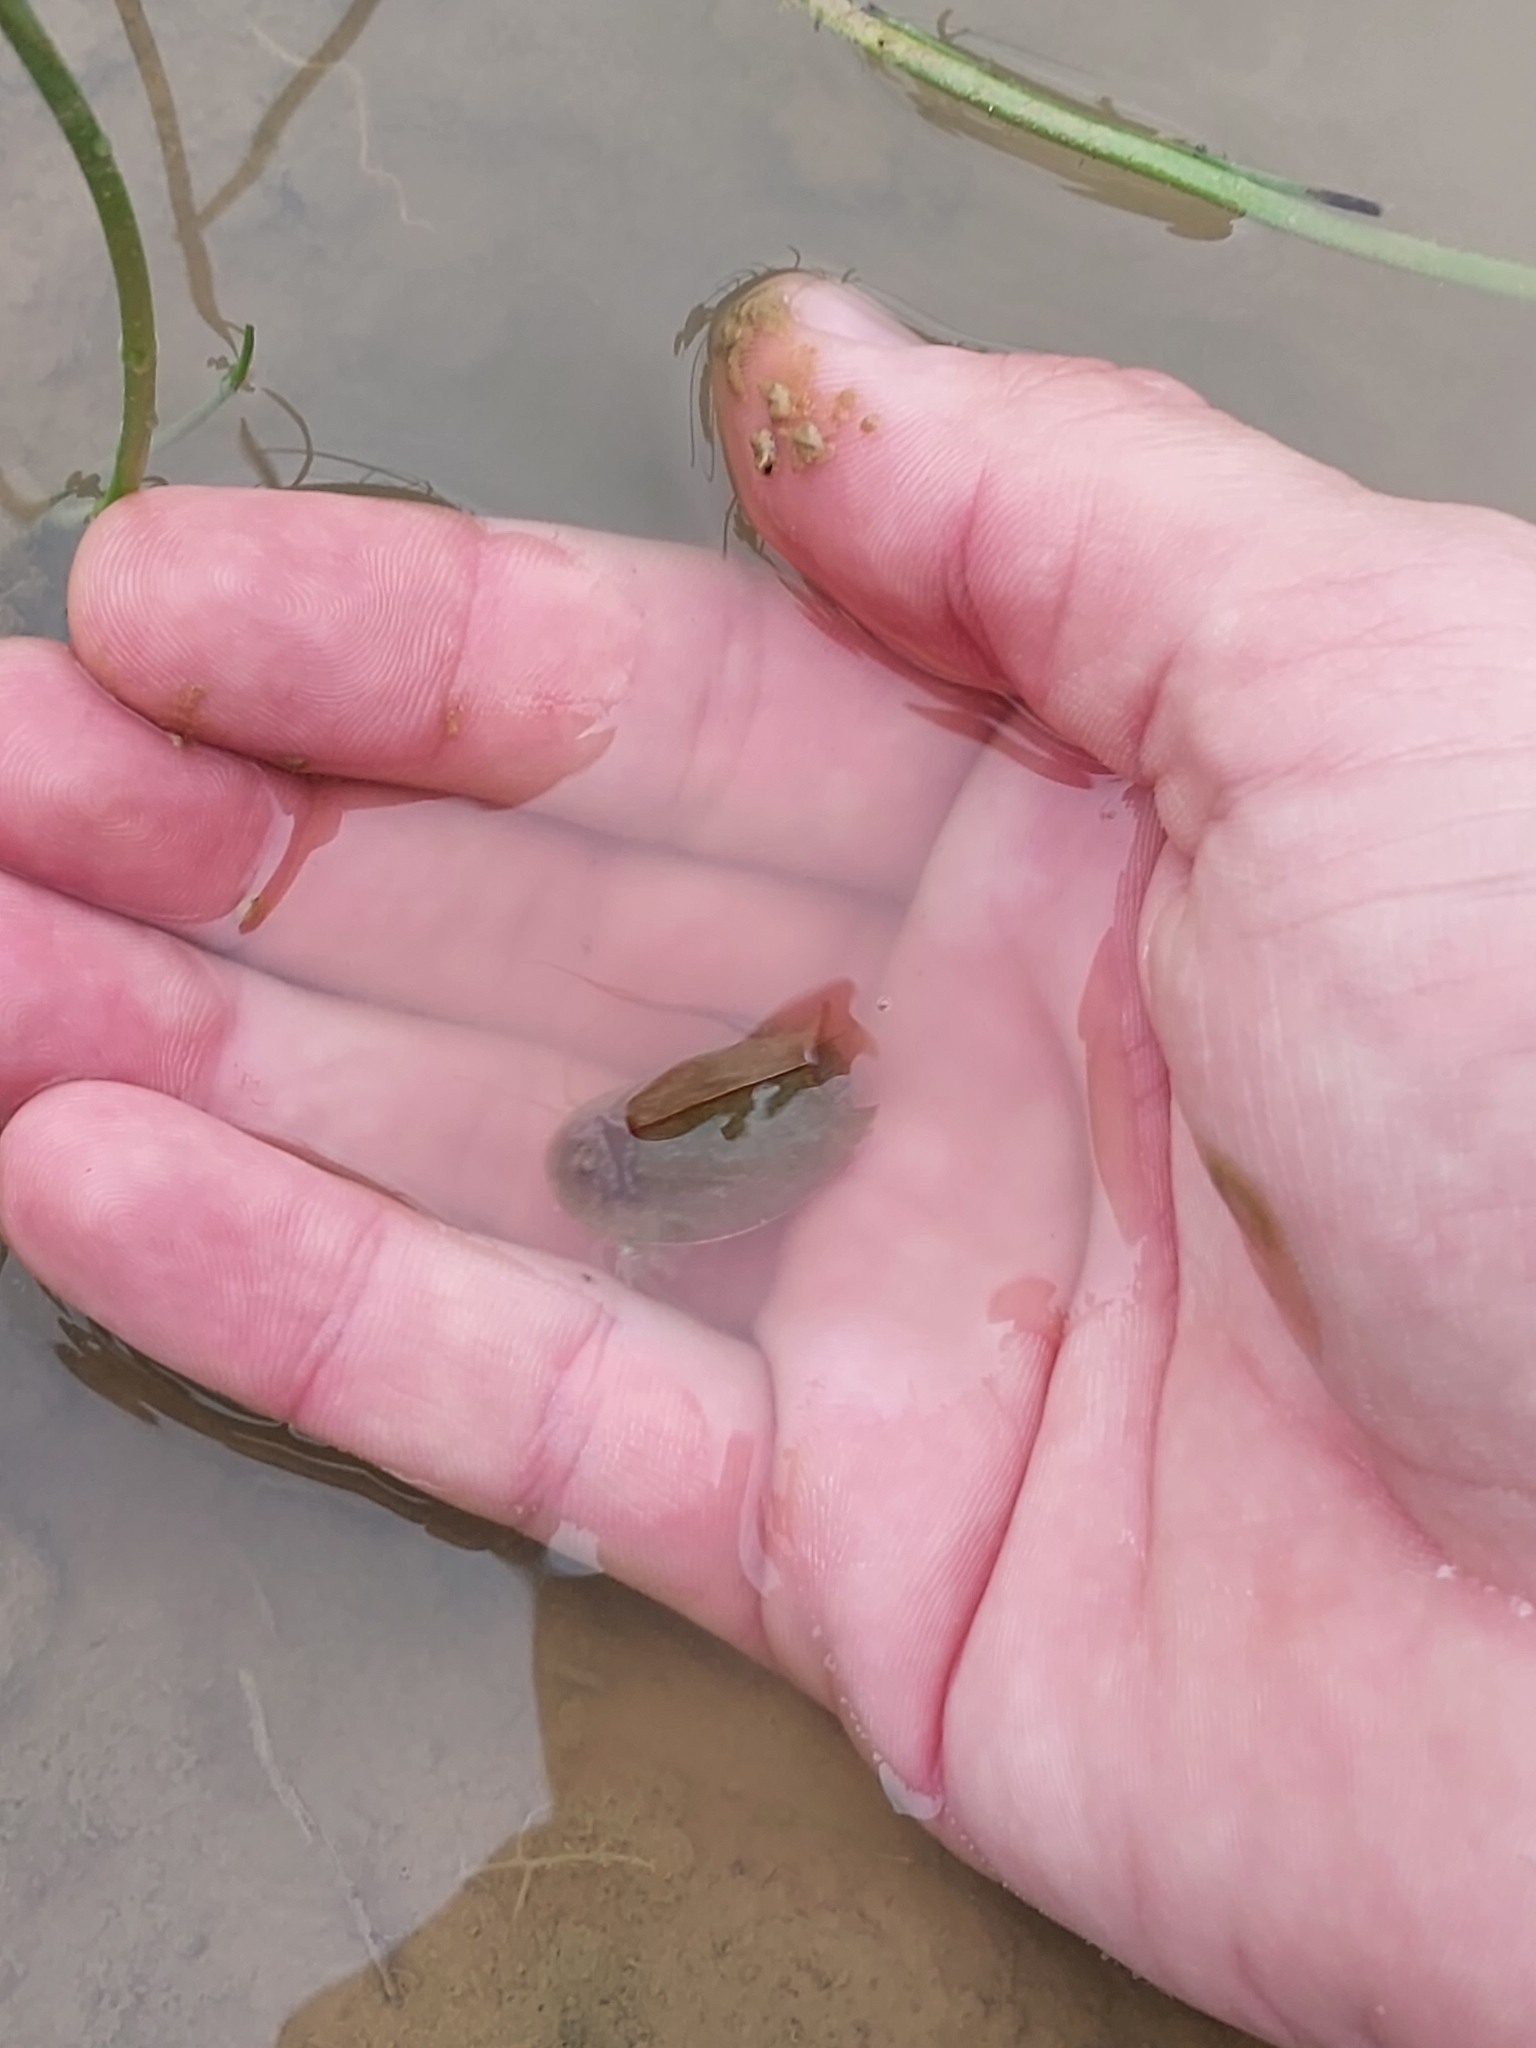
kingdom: Animalia
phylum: Arthropoda
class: Branchiopoda
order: Notostraca
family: Triopsidae
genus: Triops
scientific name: Triops cancriformis
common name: Tadpole shrimp
